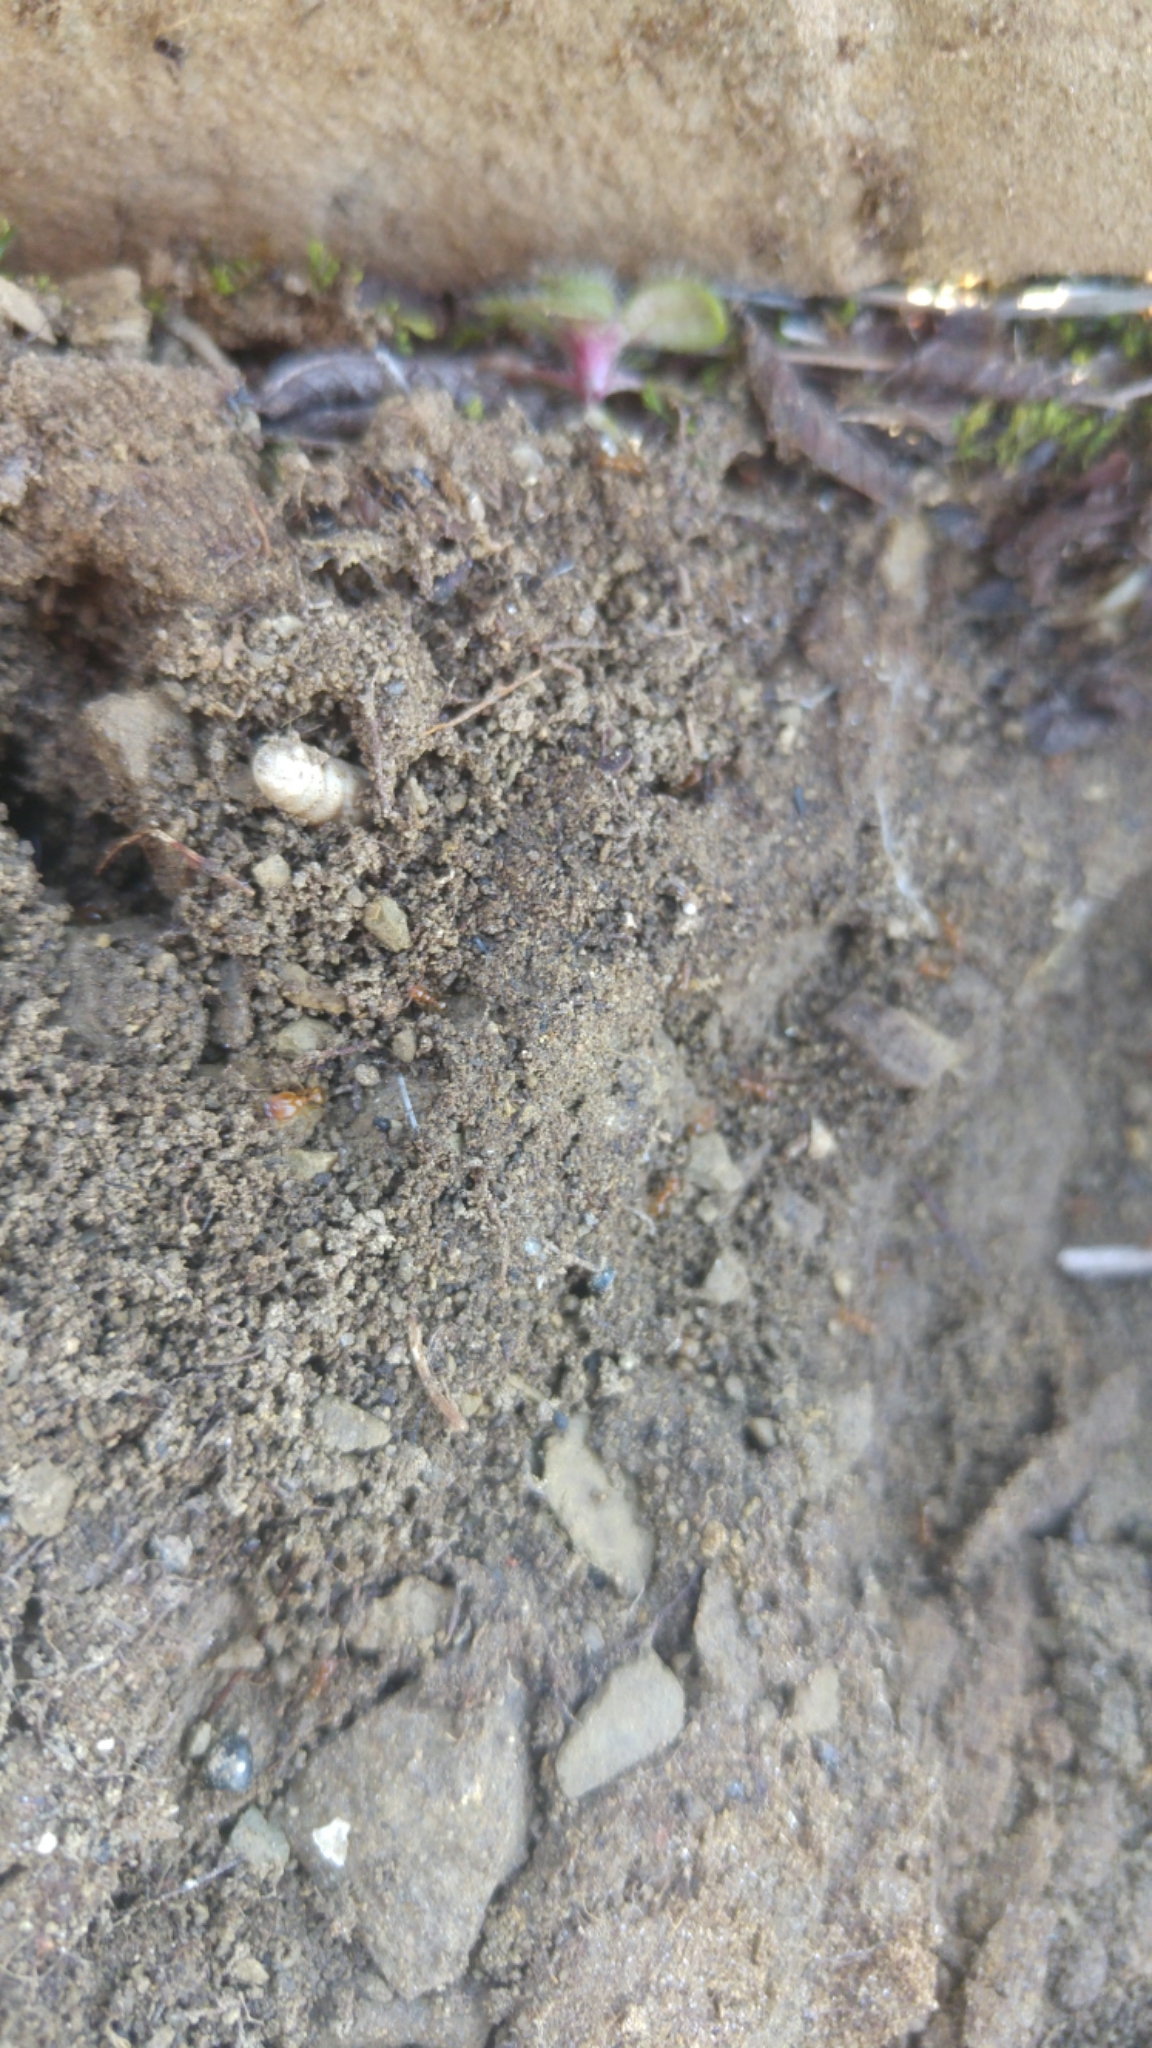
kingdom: Animalia
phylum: Arthropoda
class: Insecta
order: Hymenoptera
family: Formicidae
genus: Pheidole
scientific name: Pheidole pallidula
